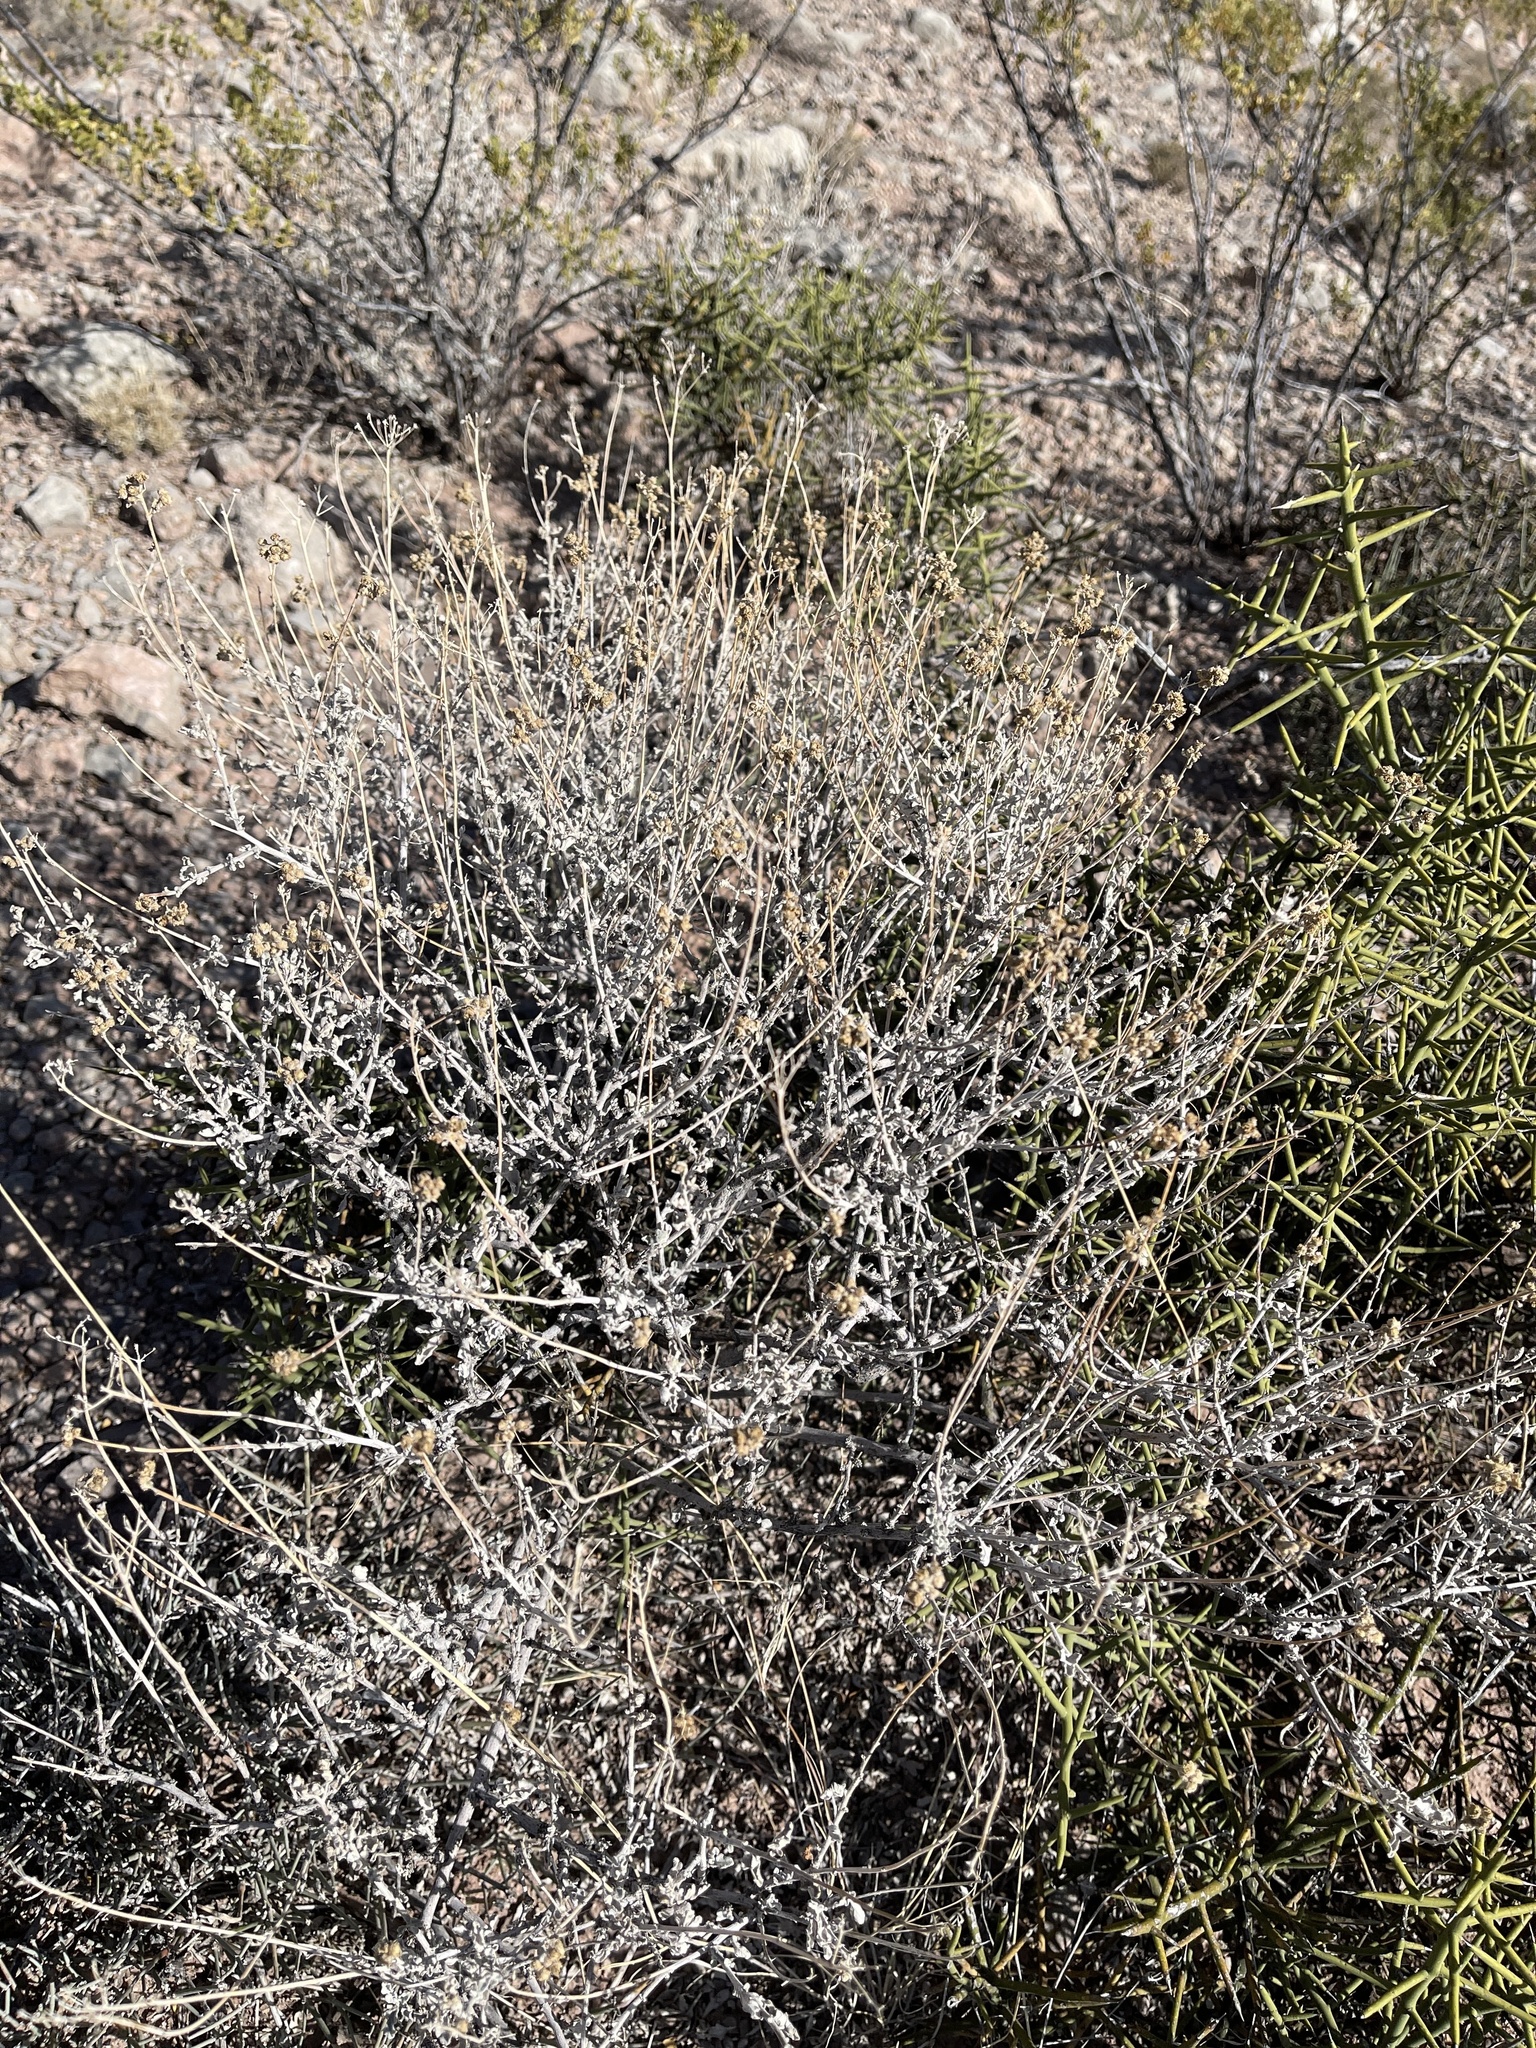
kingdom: Plantae
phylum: Tracheophyta
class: Magnoliopsida
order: Asterales
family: Asteraceae
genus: Parthenium
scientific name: Parthenium incanum
